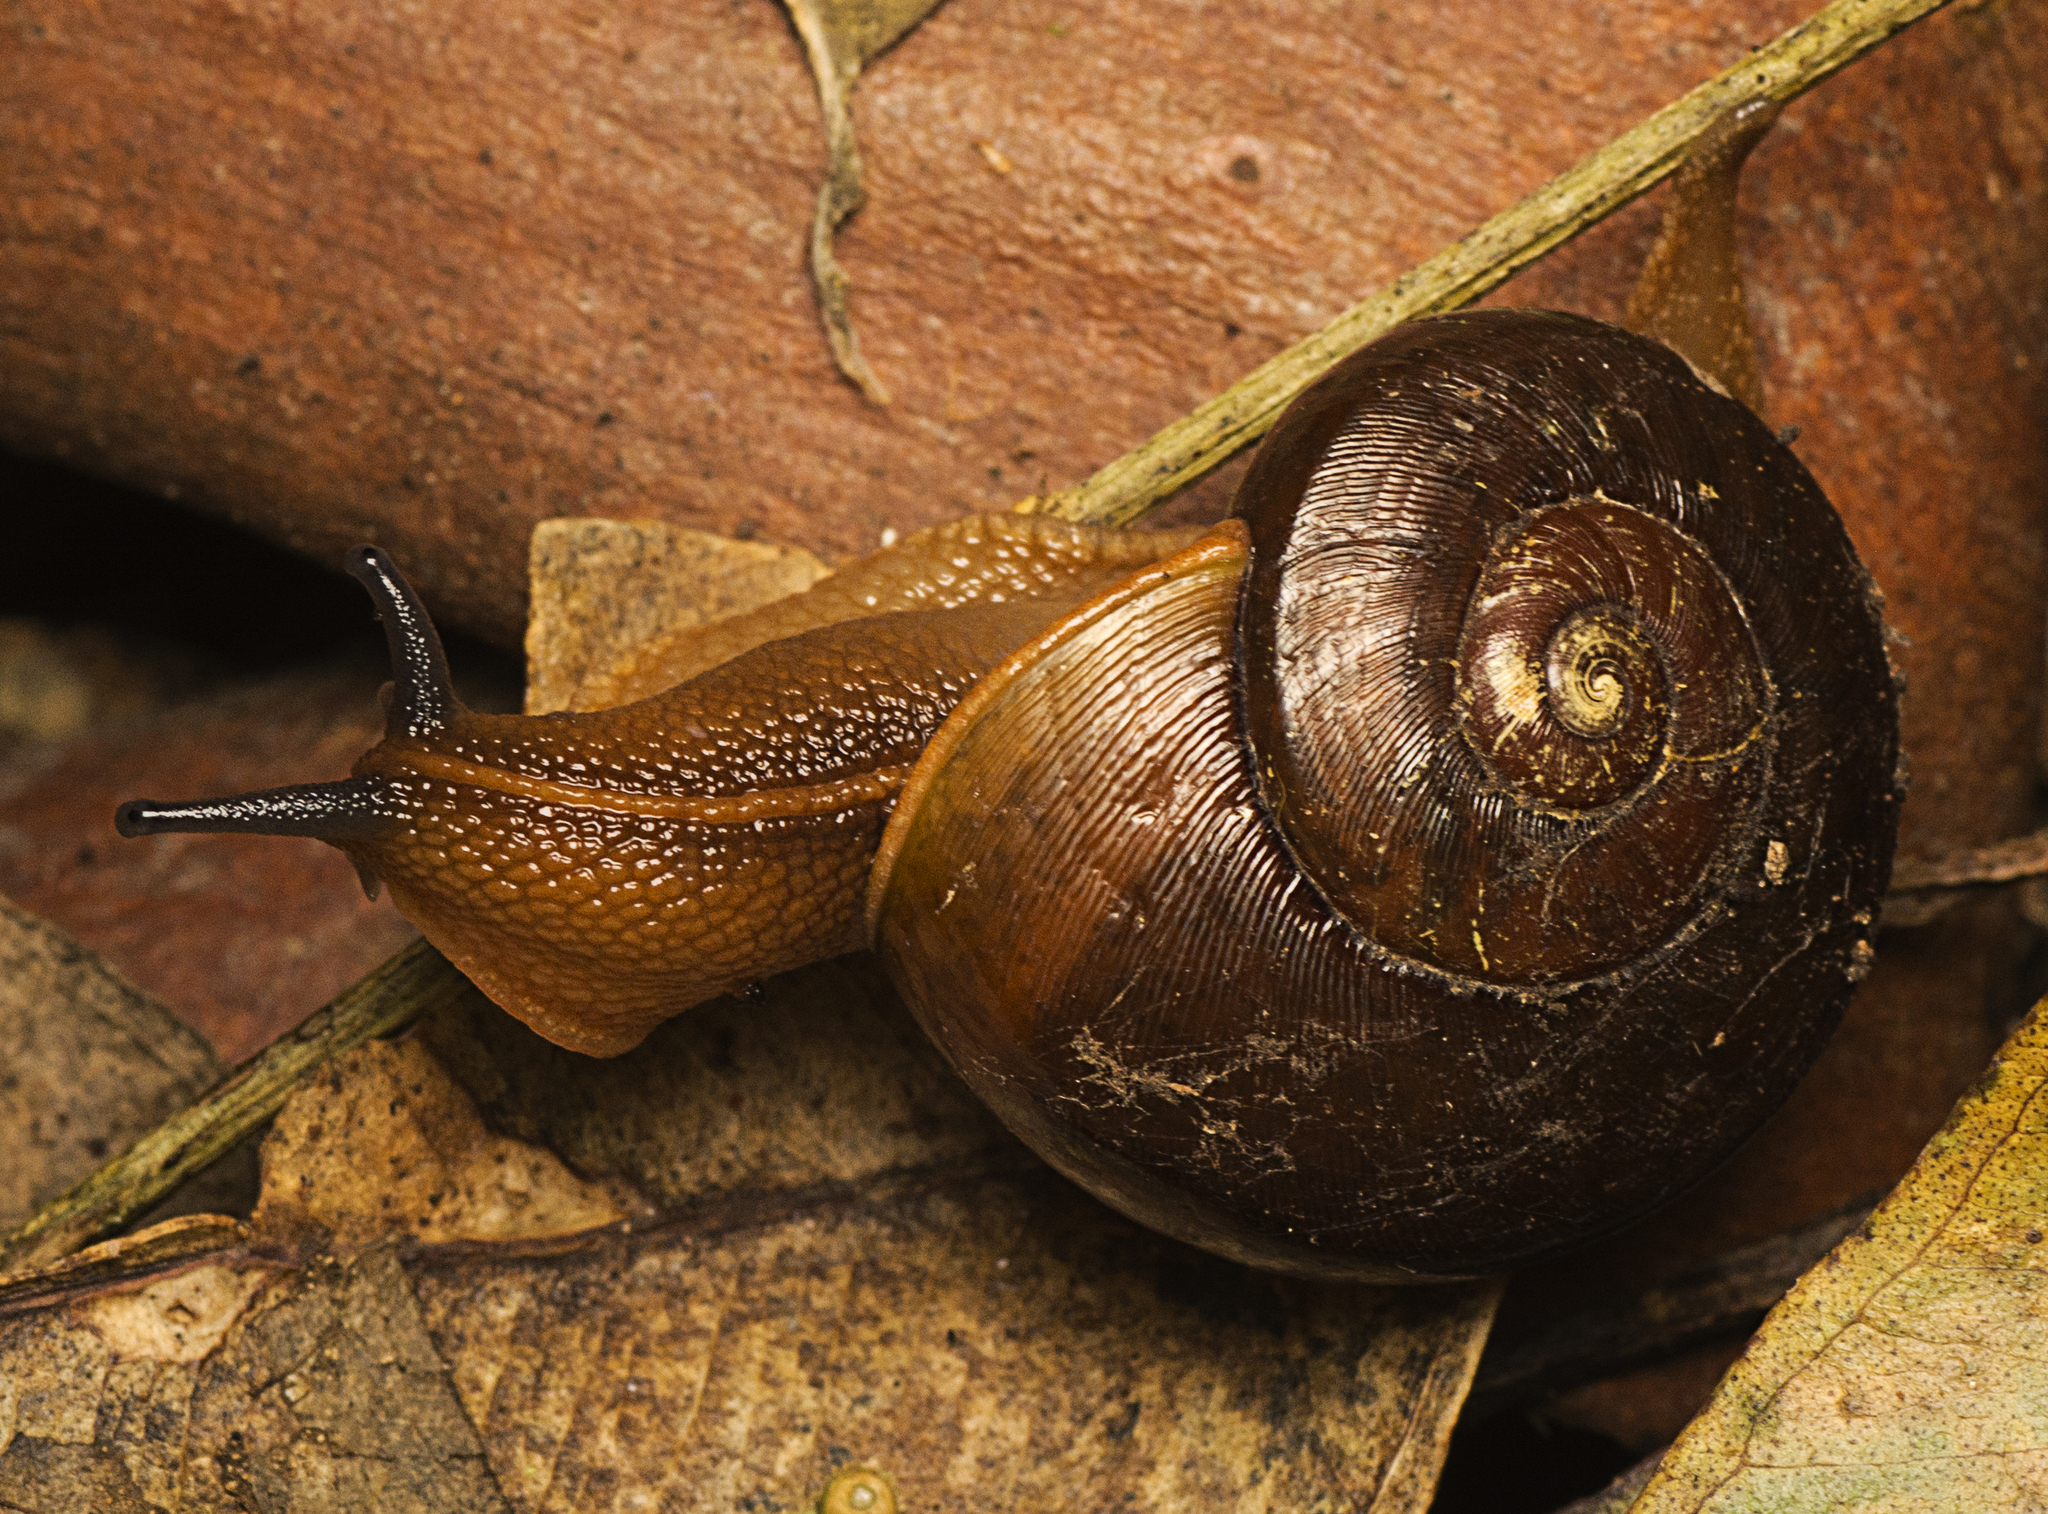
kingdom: Animalia
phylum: Mollusca
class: Gastropoda
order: Stylommatophora
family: Rhytididae
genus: Terrycarlessia
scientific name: Terrycarlessia turbinata
